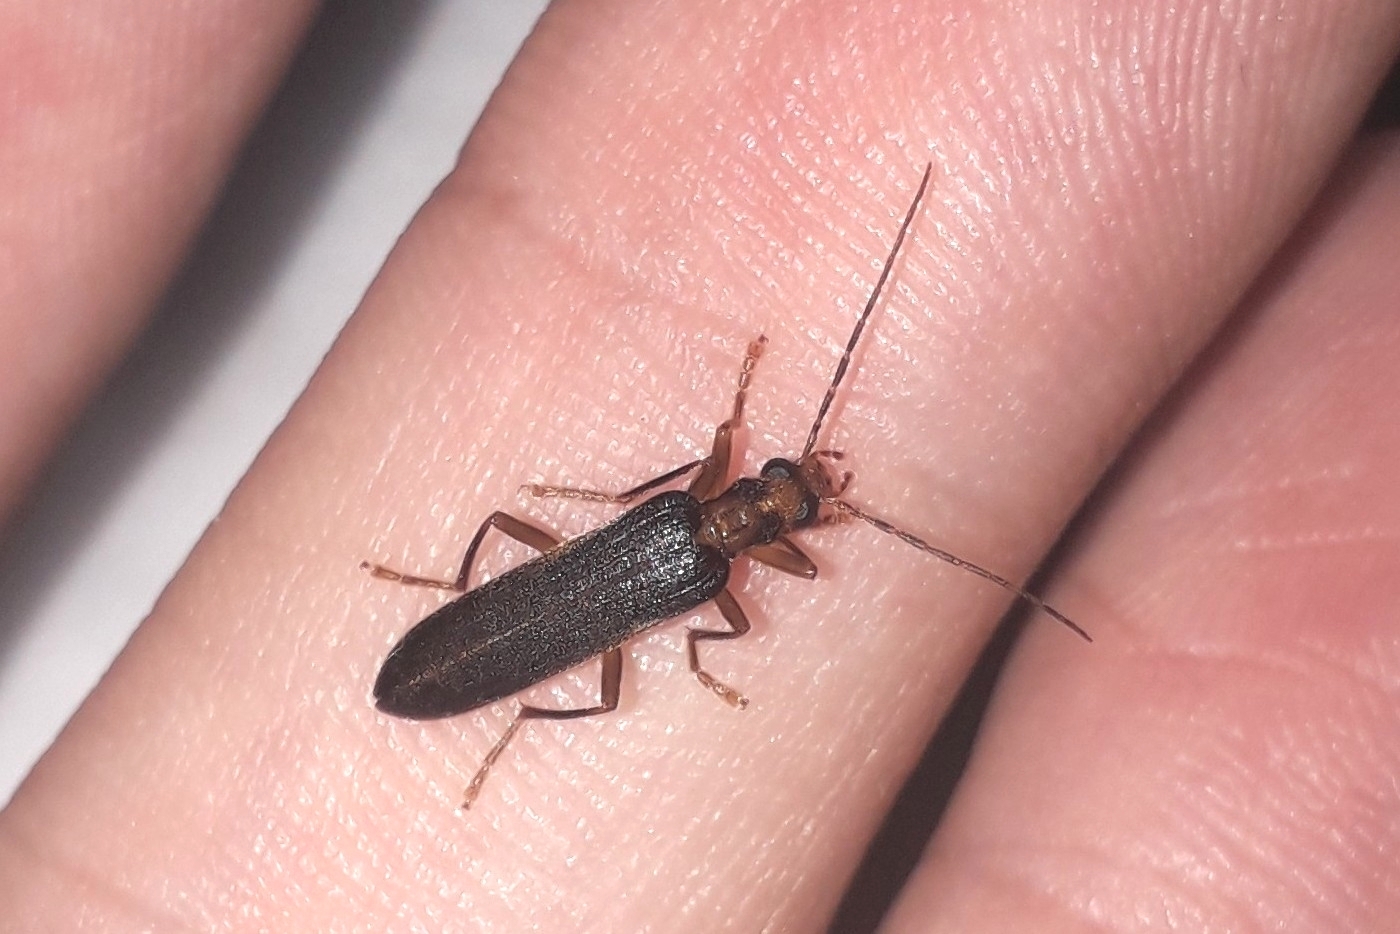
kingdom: Animalia
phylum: Arthropoda
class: Insecta
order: Coleoptera
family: Oedemeridae
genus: Nacerdes
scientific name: Nacerdes carniolica
